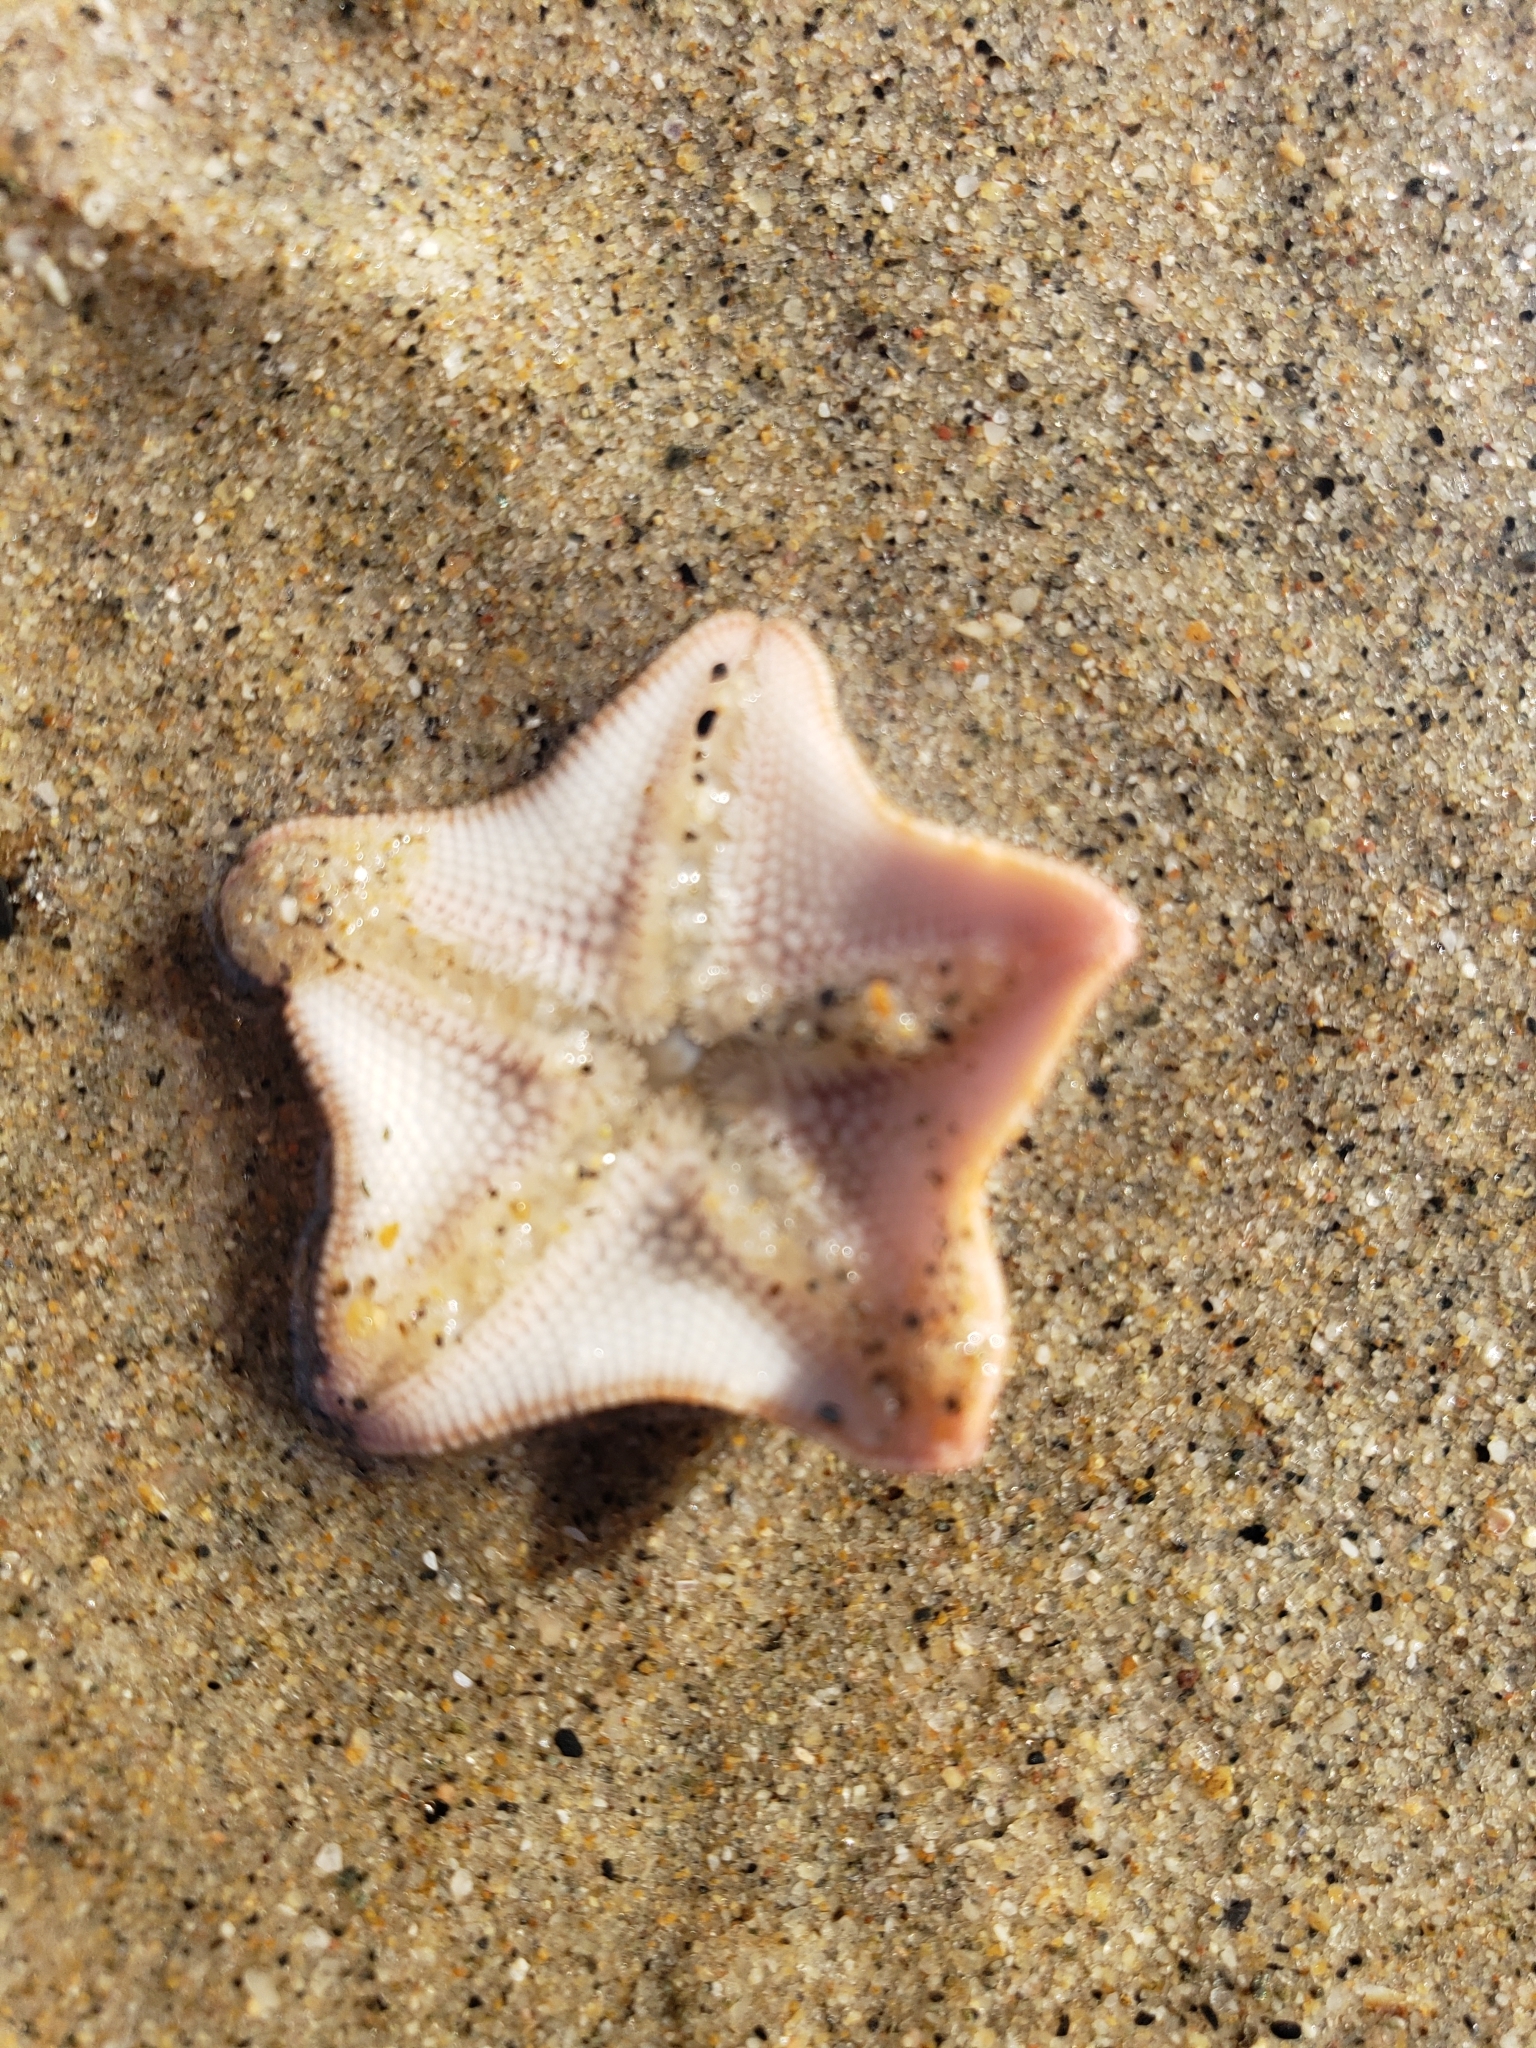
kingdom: Animalia
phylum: Echinodermata
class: Asteroidea
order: Valvatida
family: Asterinidae
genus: Patiria
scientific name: Patiria miniata
